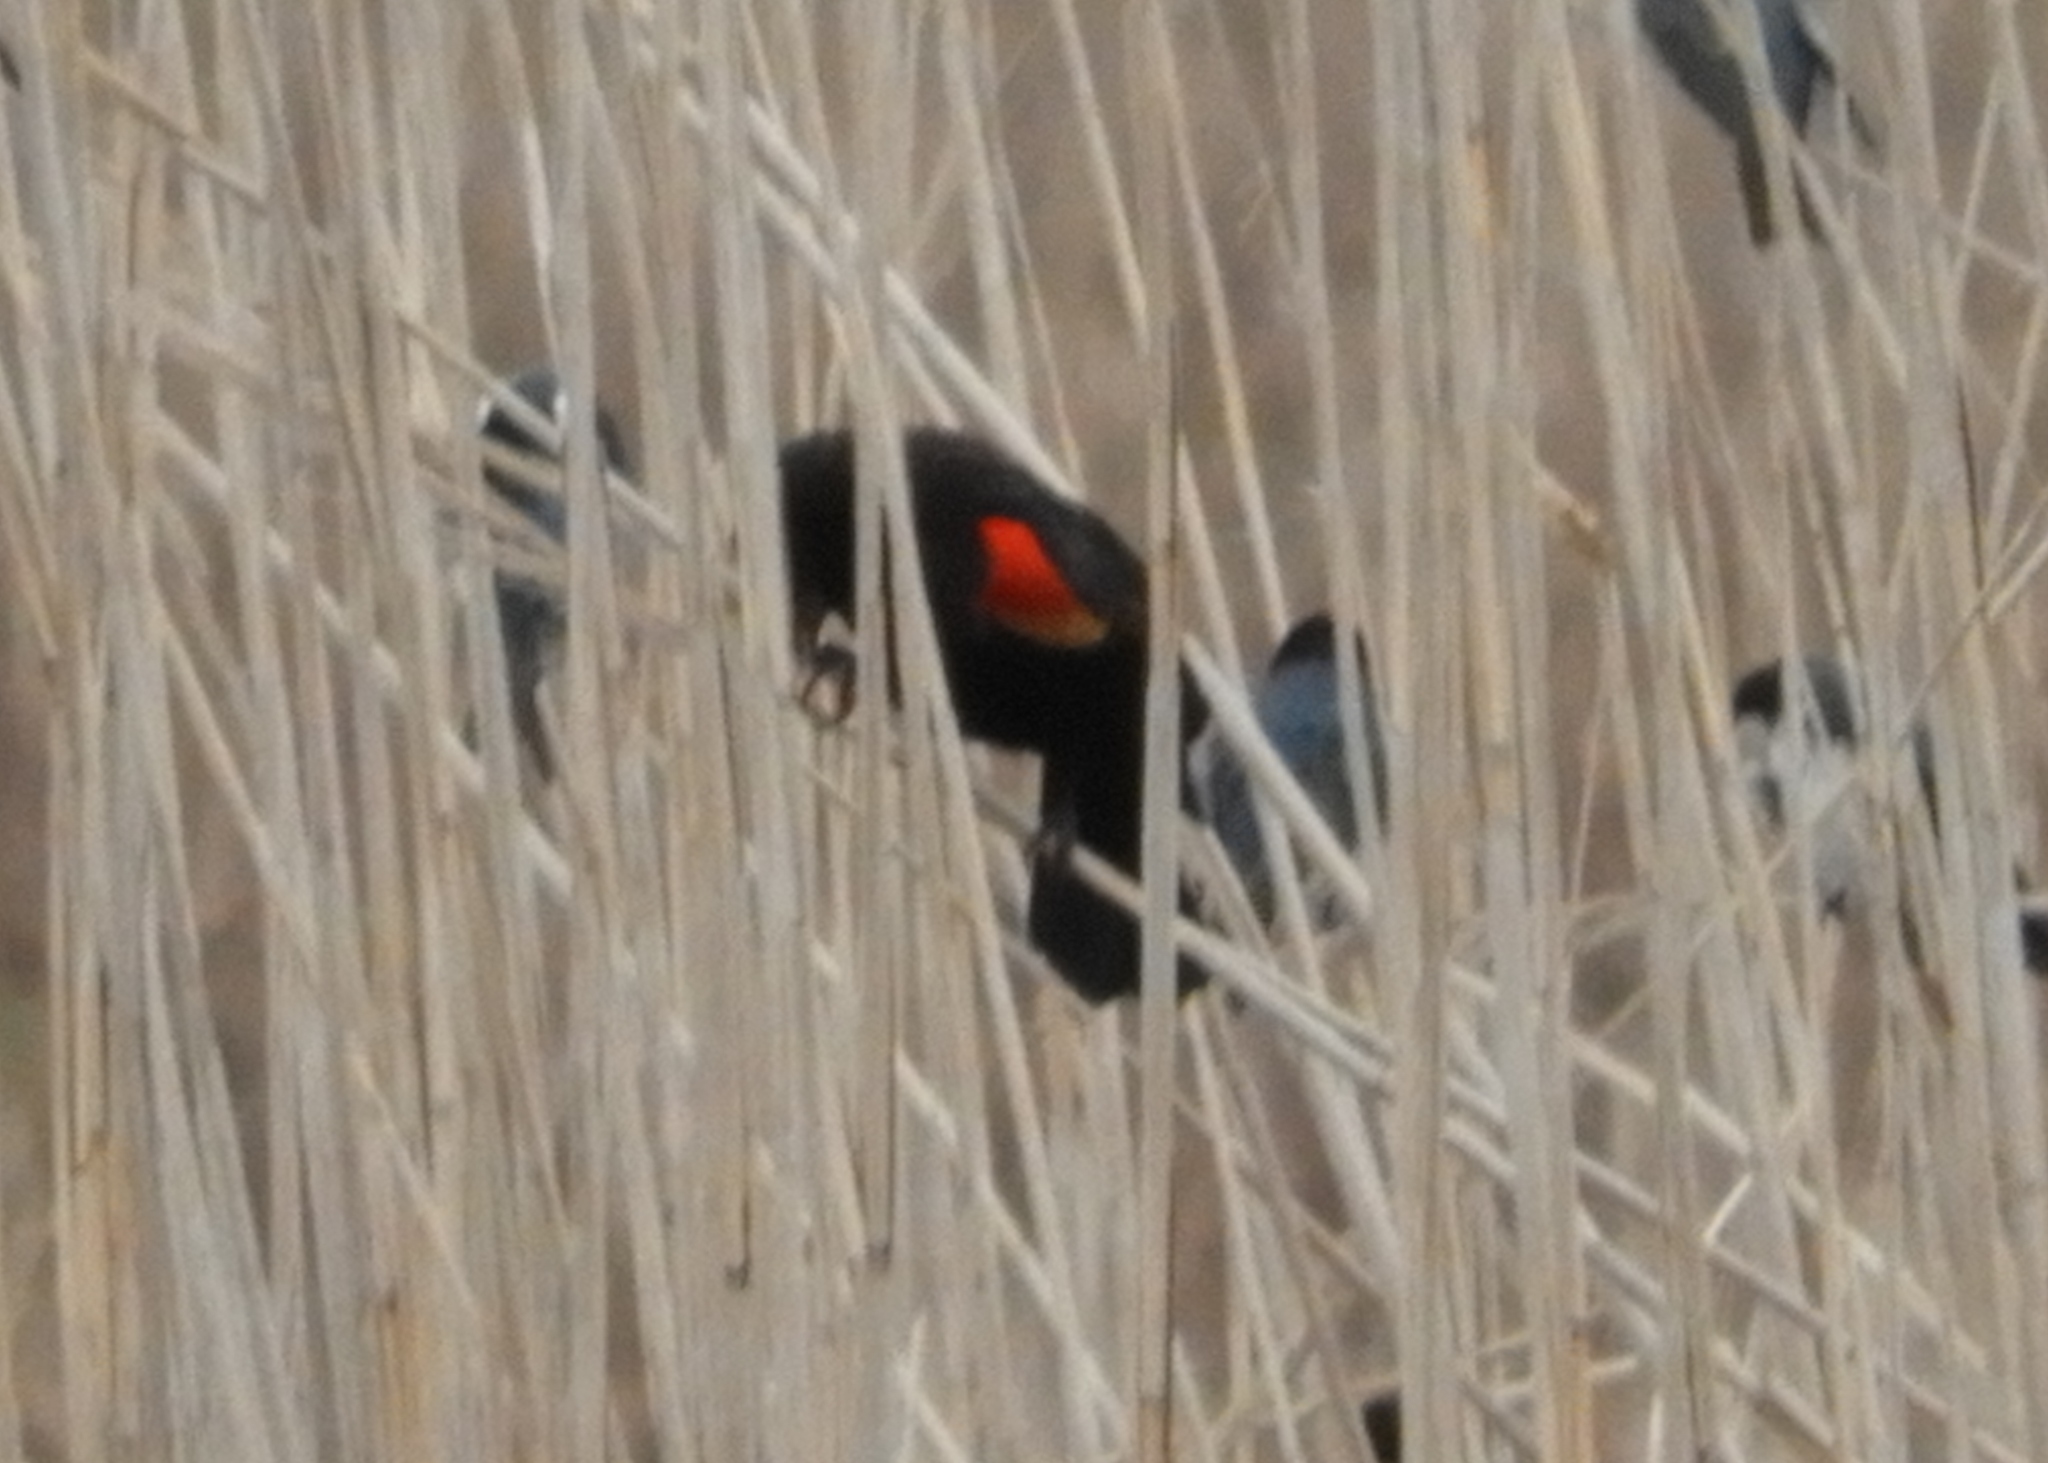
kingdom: Animalia
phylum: Chordata
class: Aves
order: Passeriformes
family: Icteridae
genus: Agelaius
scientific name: Agelaius phoeniceus
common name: Red-winged blackbird
